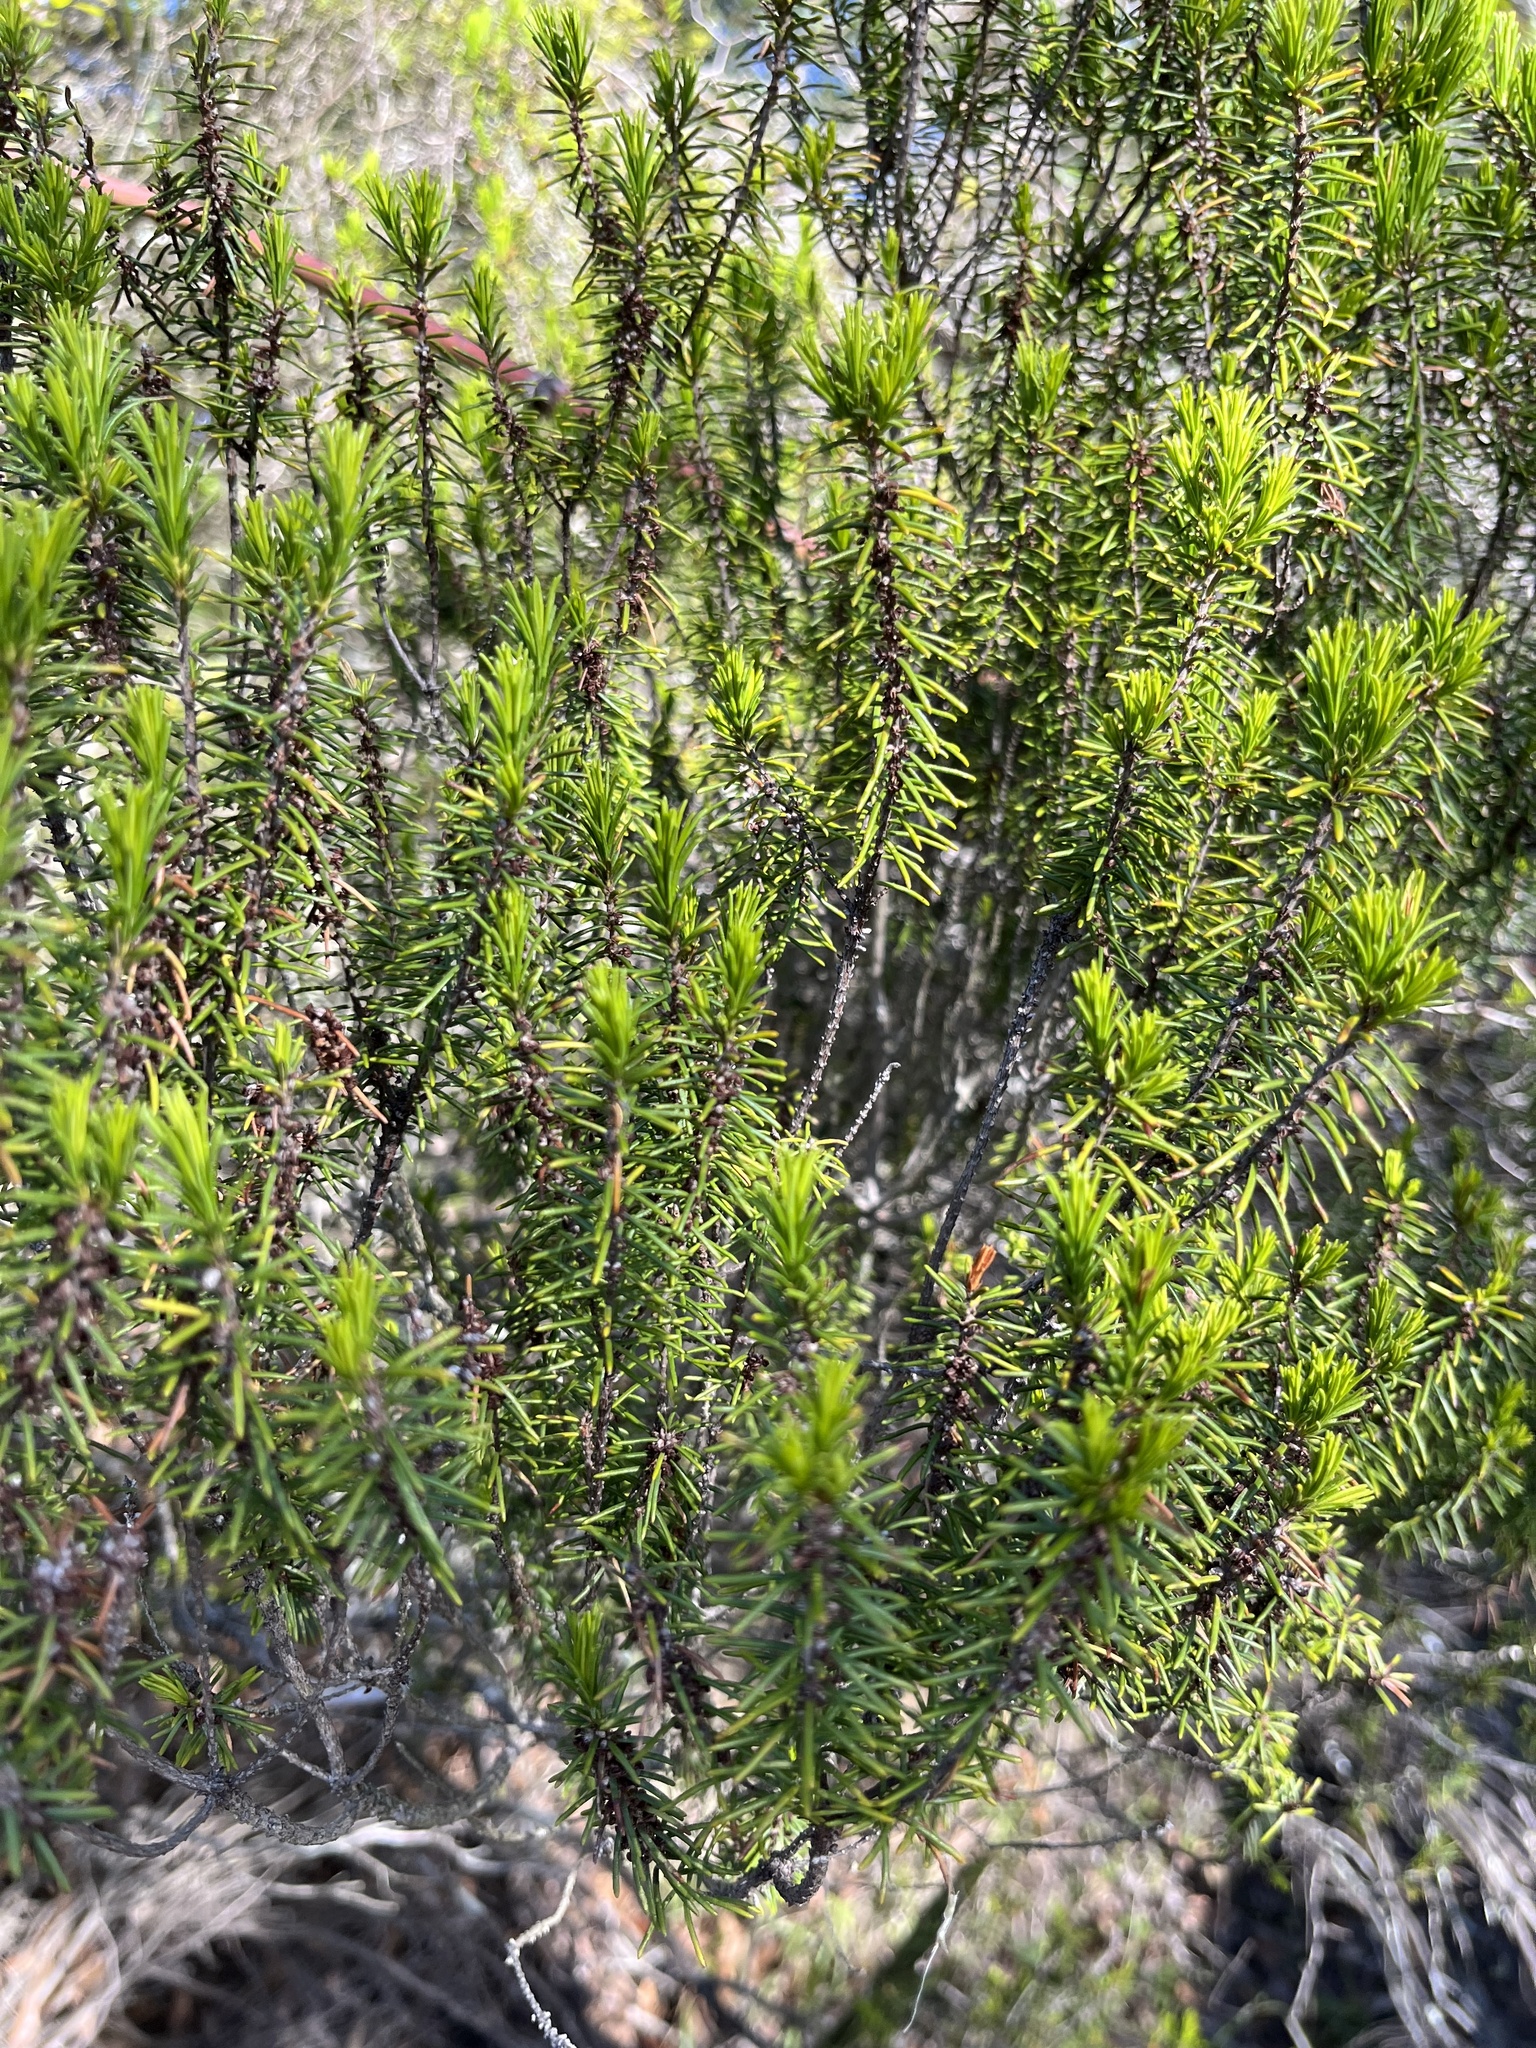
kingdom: Plantae
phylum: Tracheophyta
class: Magnoliopsida
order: Ericales
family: Ericaceae
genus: Ceratiola
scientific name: Ceratiola ericoides
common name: Sandhill-rosemary
